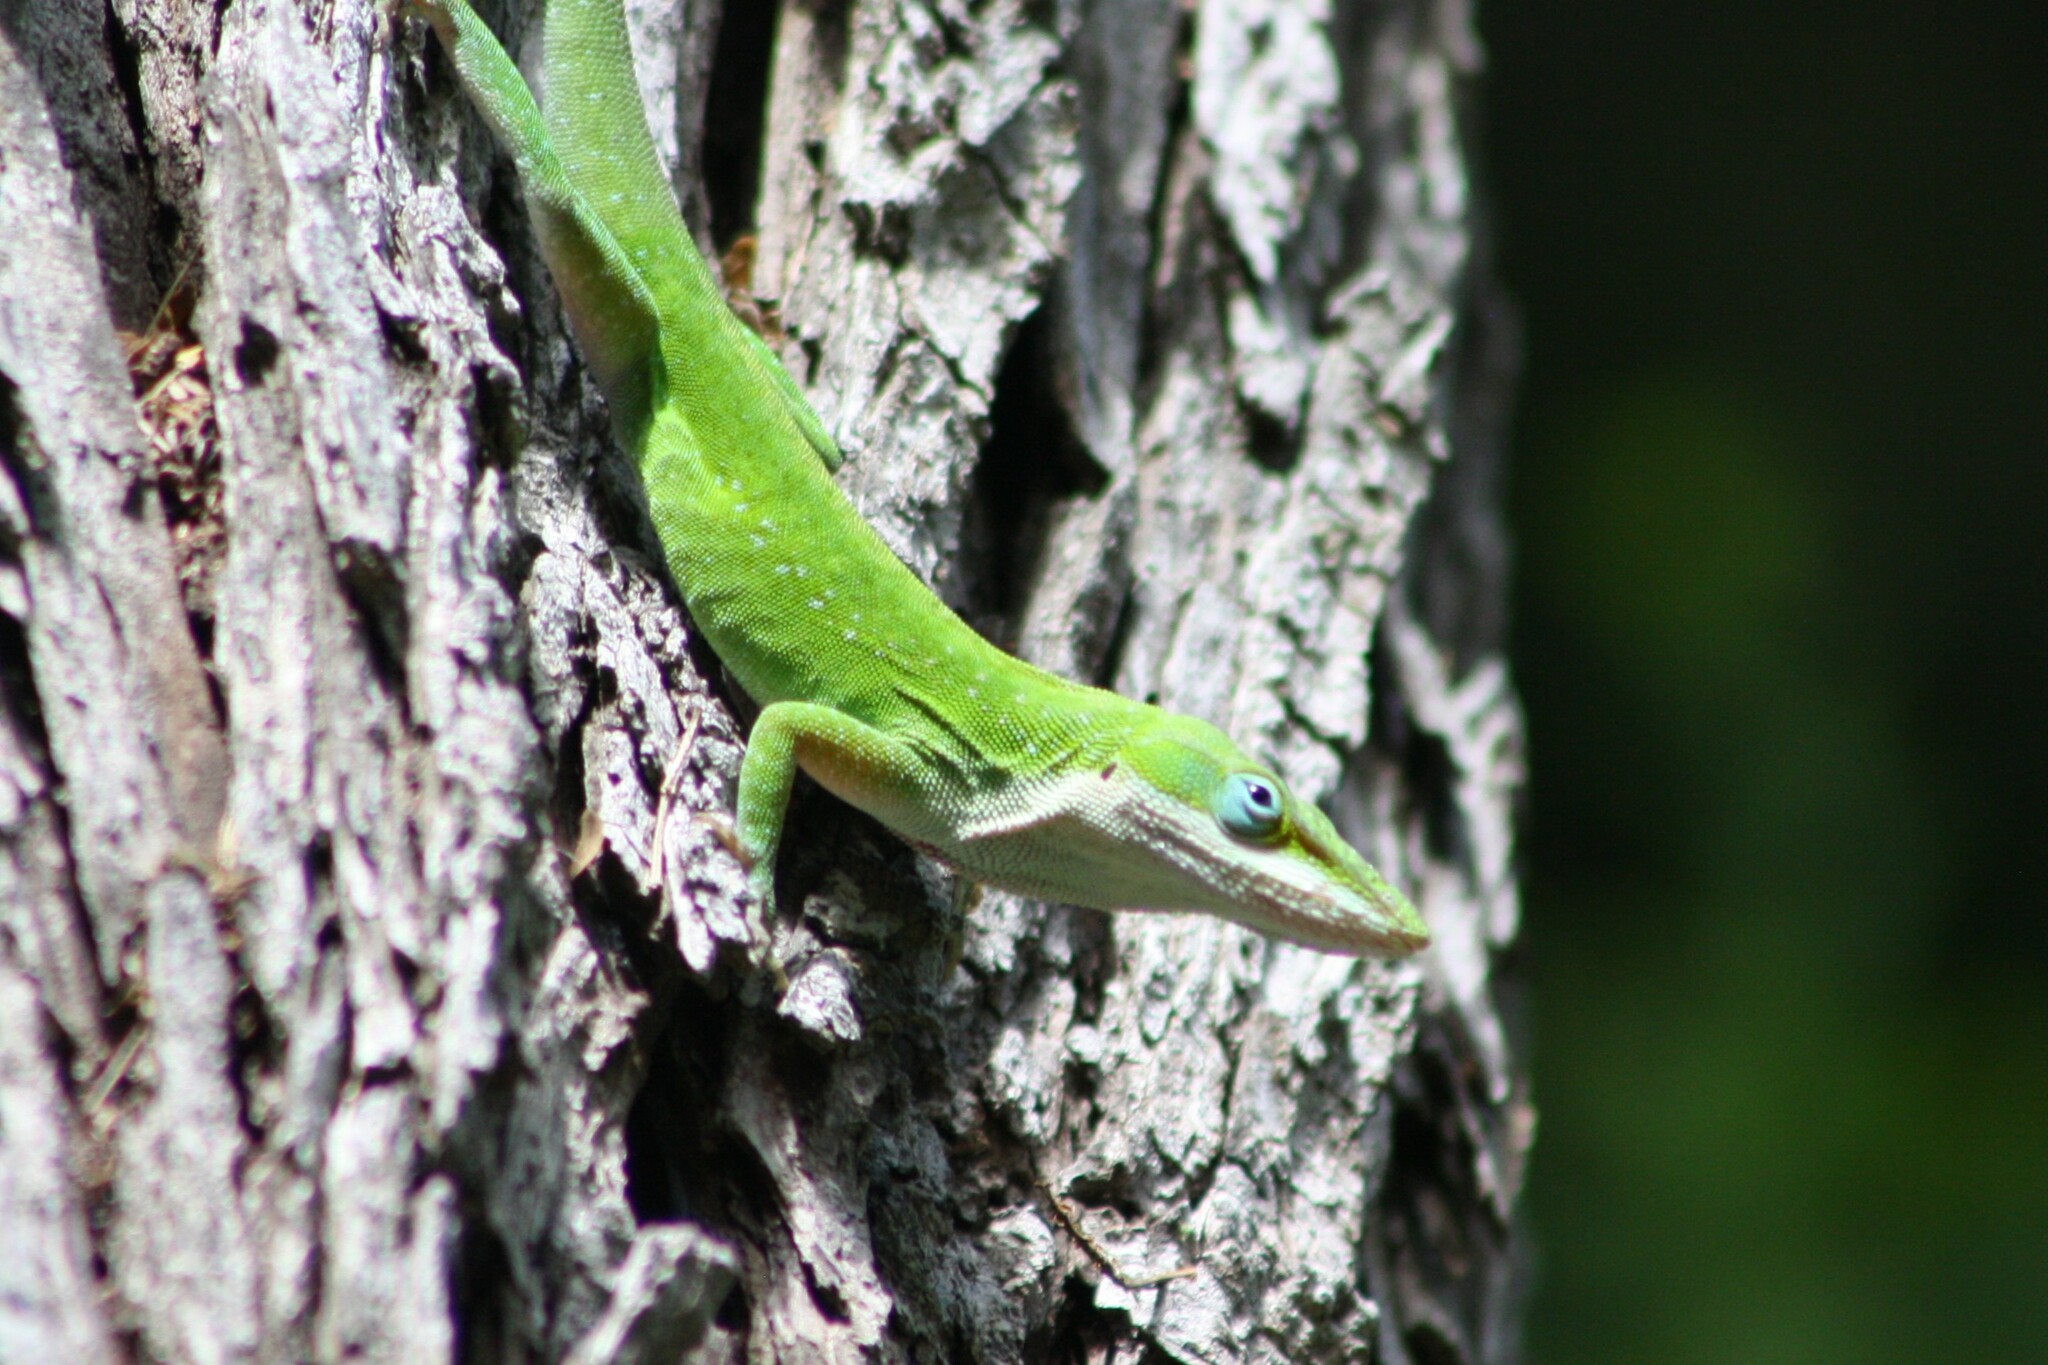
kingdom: Animalia
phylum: Chordata
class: Squamata
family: Dactyloidae
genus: Anolis
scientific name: Anolis carolinensis
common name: Green anole
